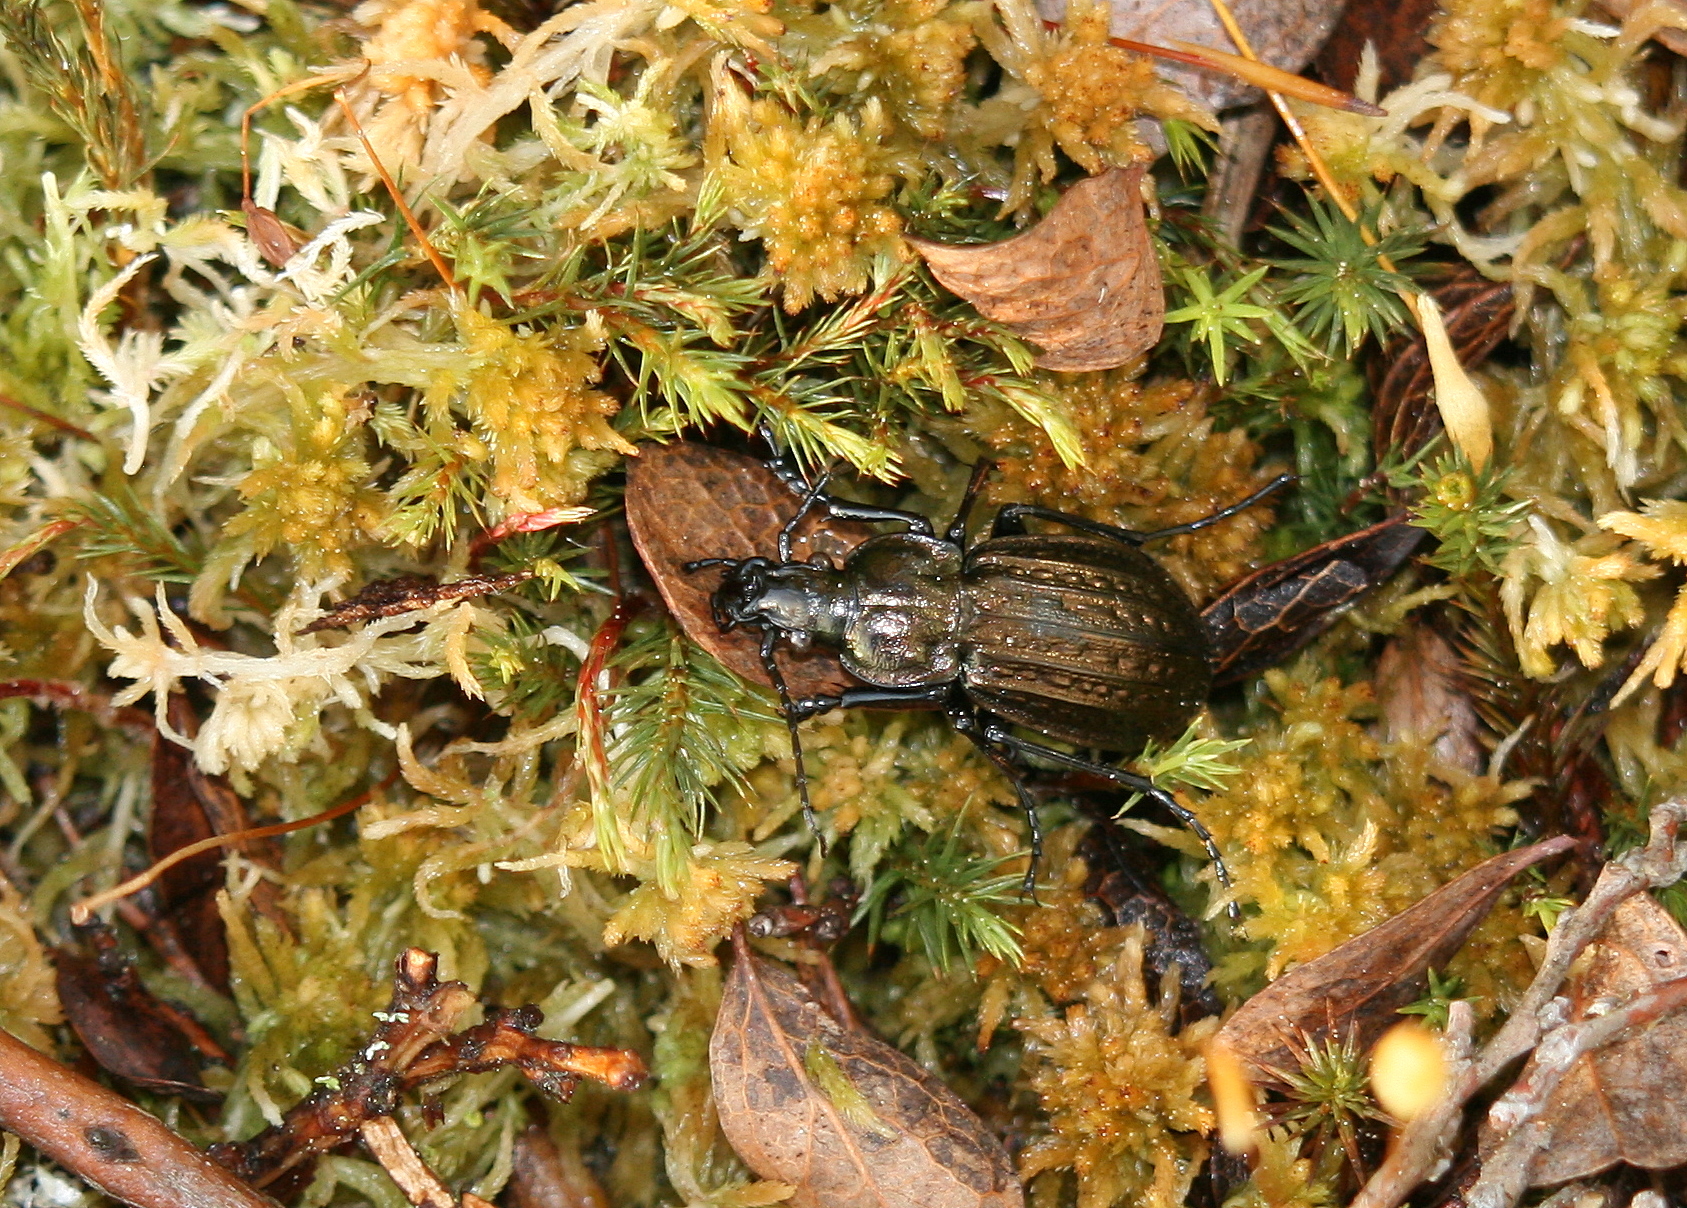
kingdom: Animalia
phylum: Arthropoda
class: Insecta
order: Coleoptera
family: Carabidae
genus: Carabus
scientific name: Carabus menetriesi
